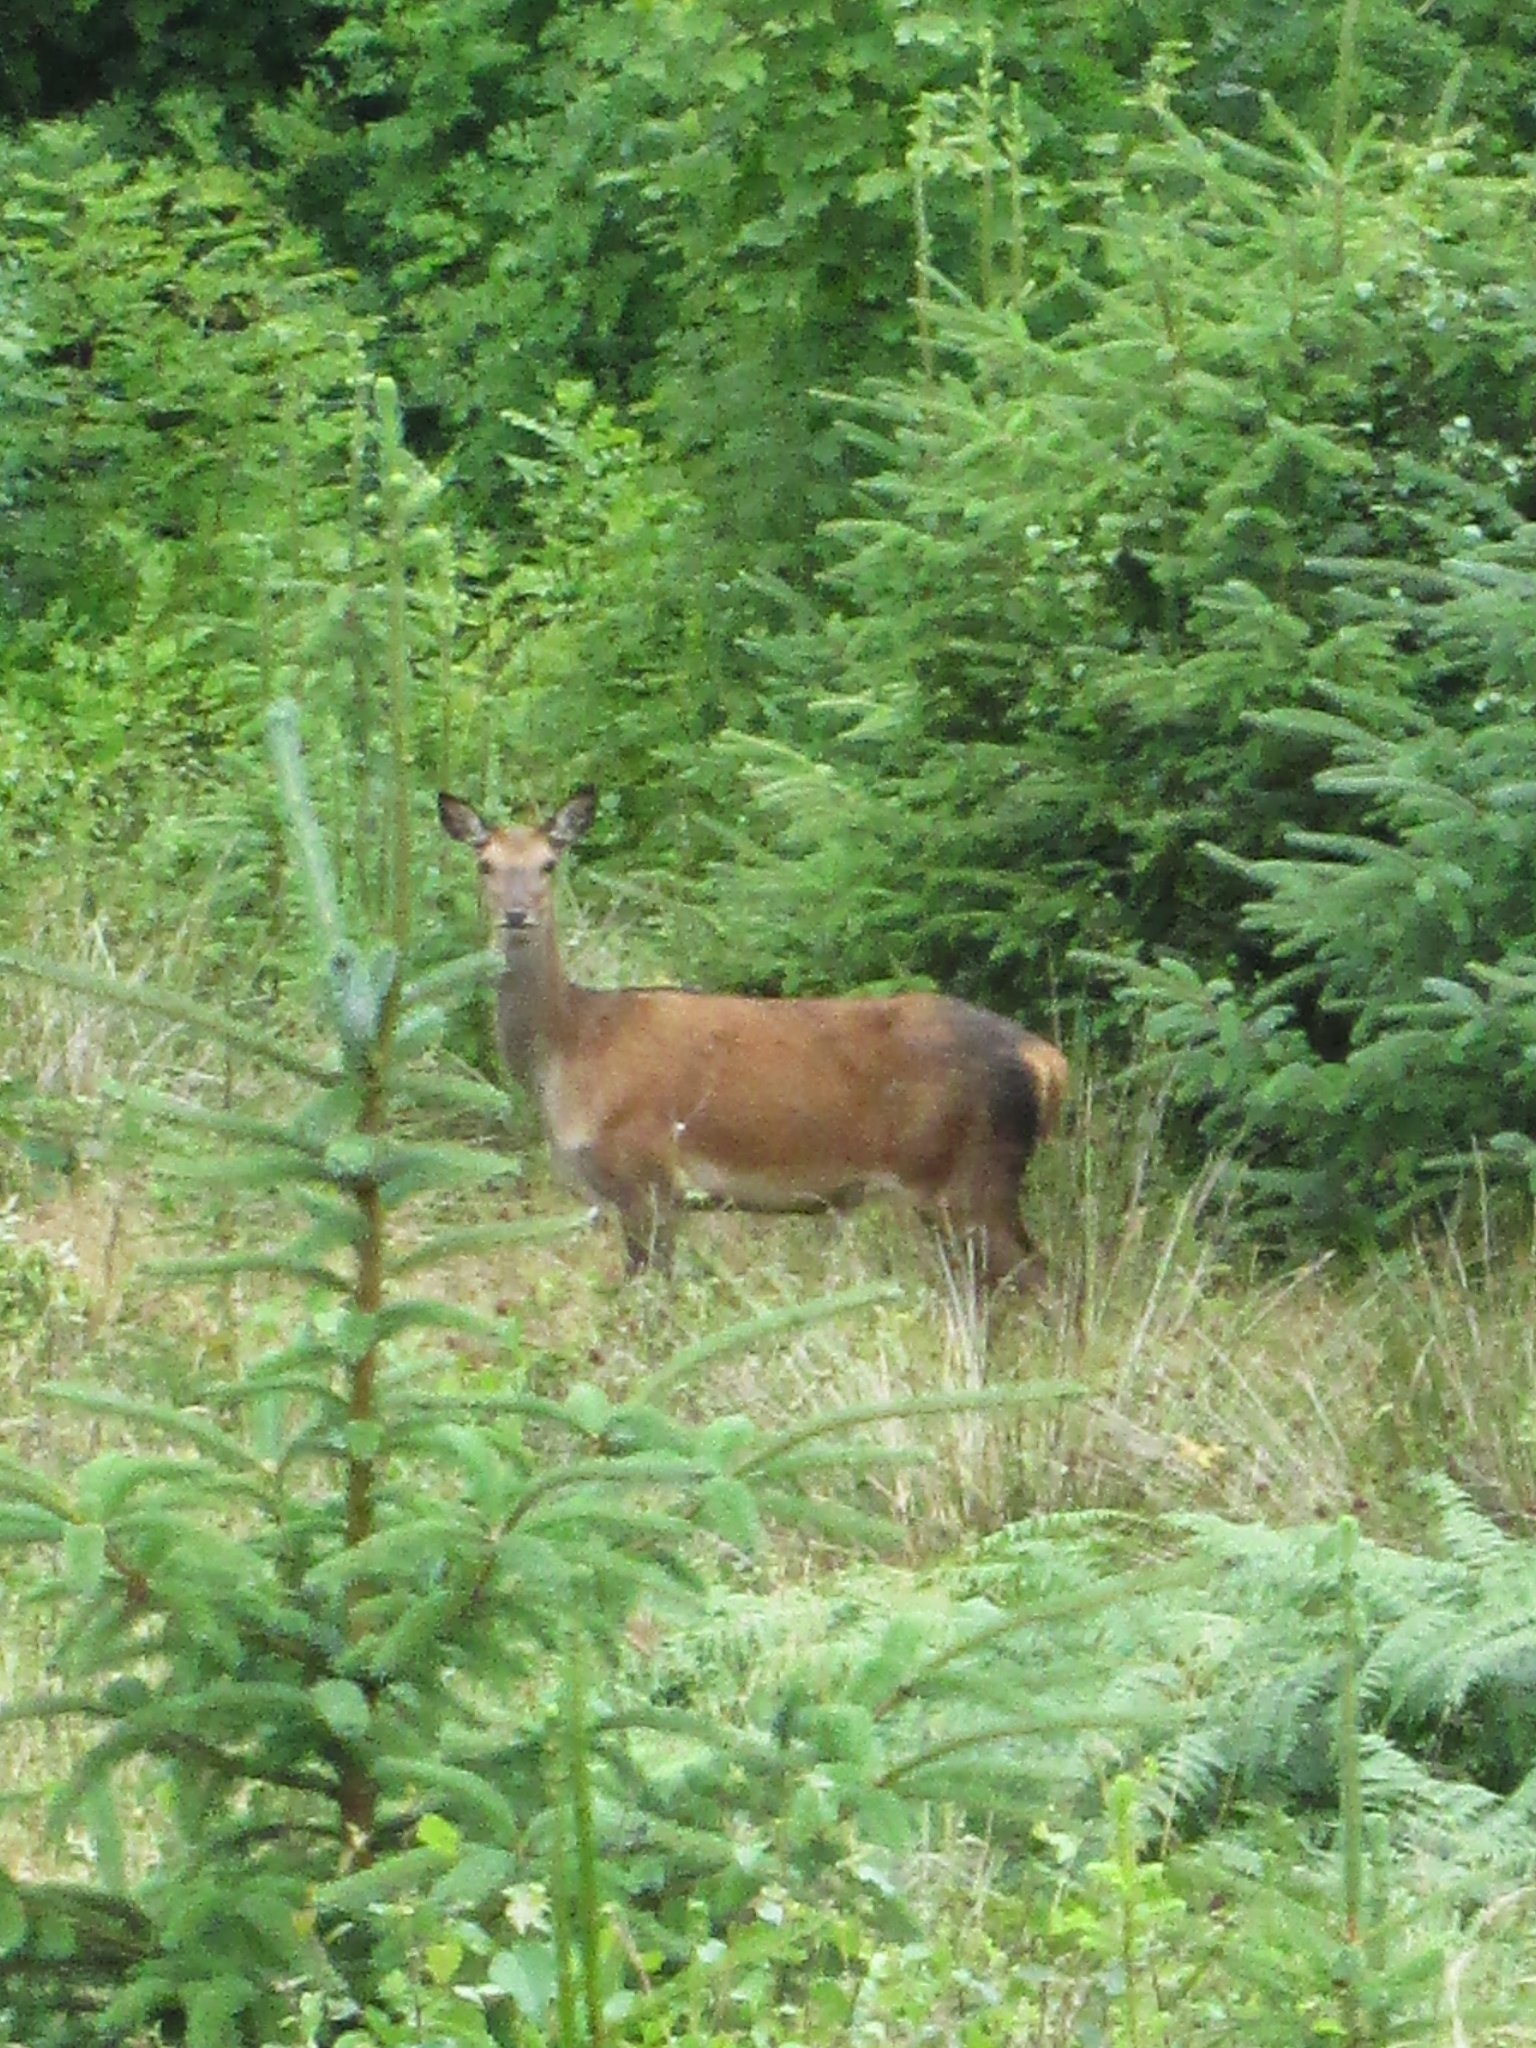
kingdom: Animalia
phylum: Chordata
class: Mammalia
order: Artiodactyla
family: Cervidae
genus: Cervus
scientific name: Cervus elaphus
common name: Red deer
